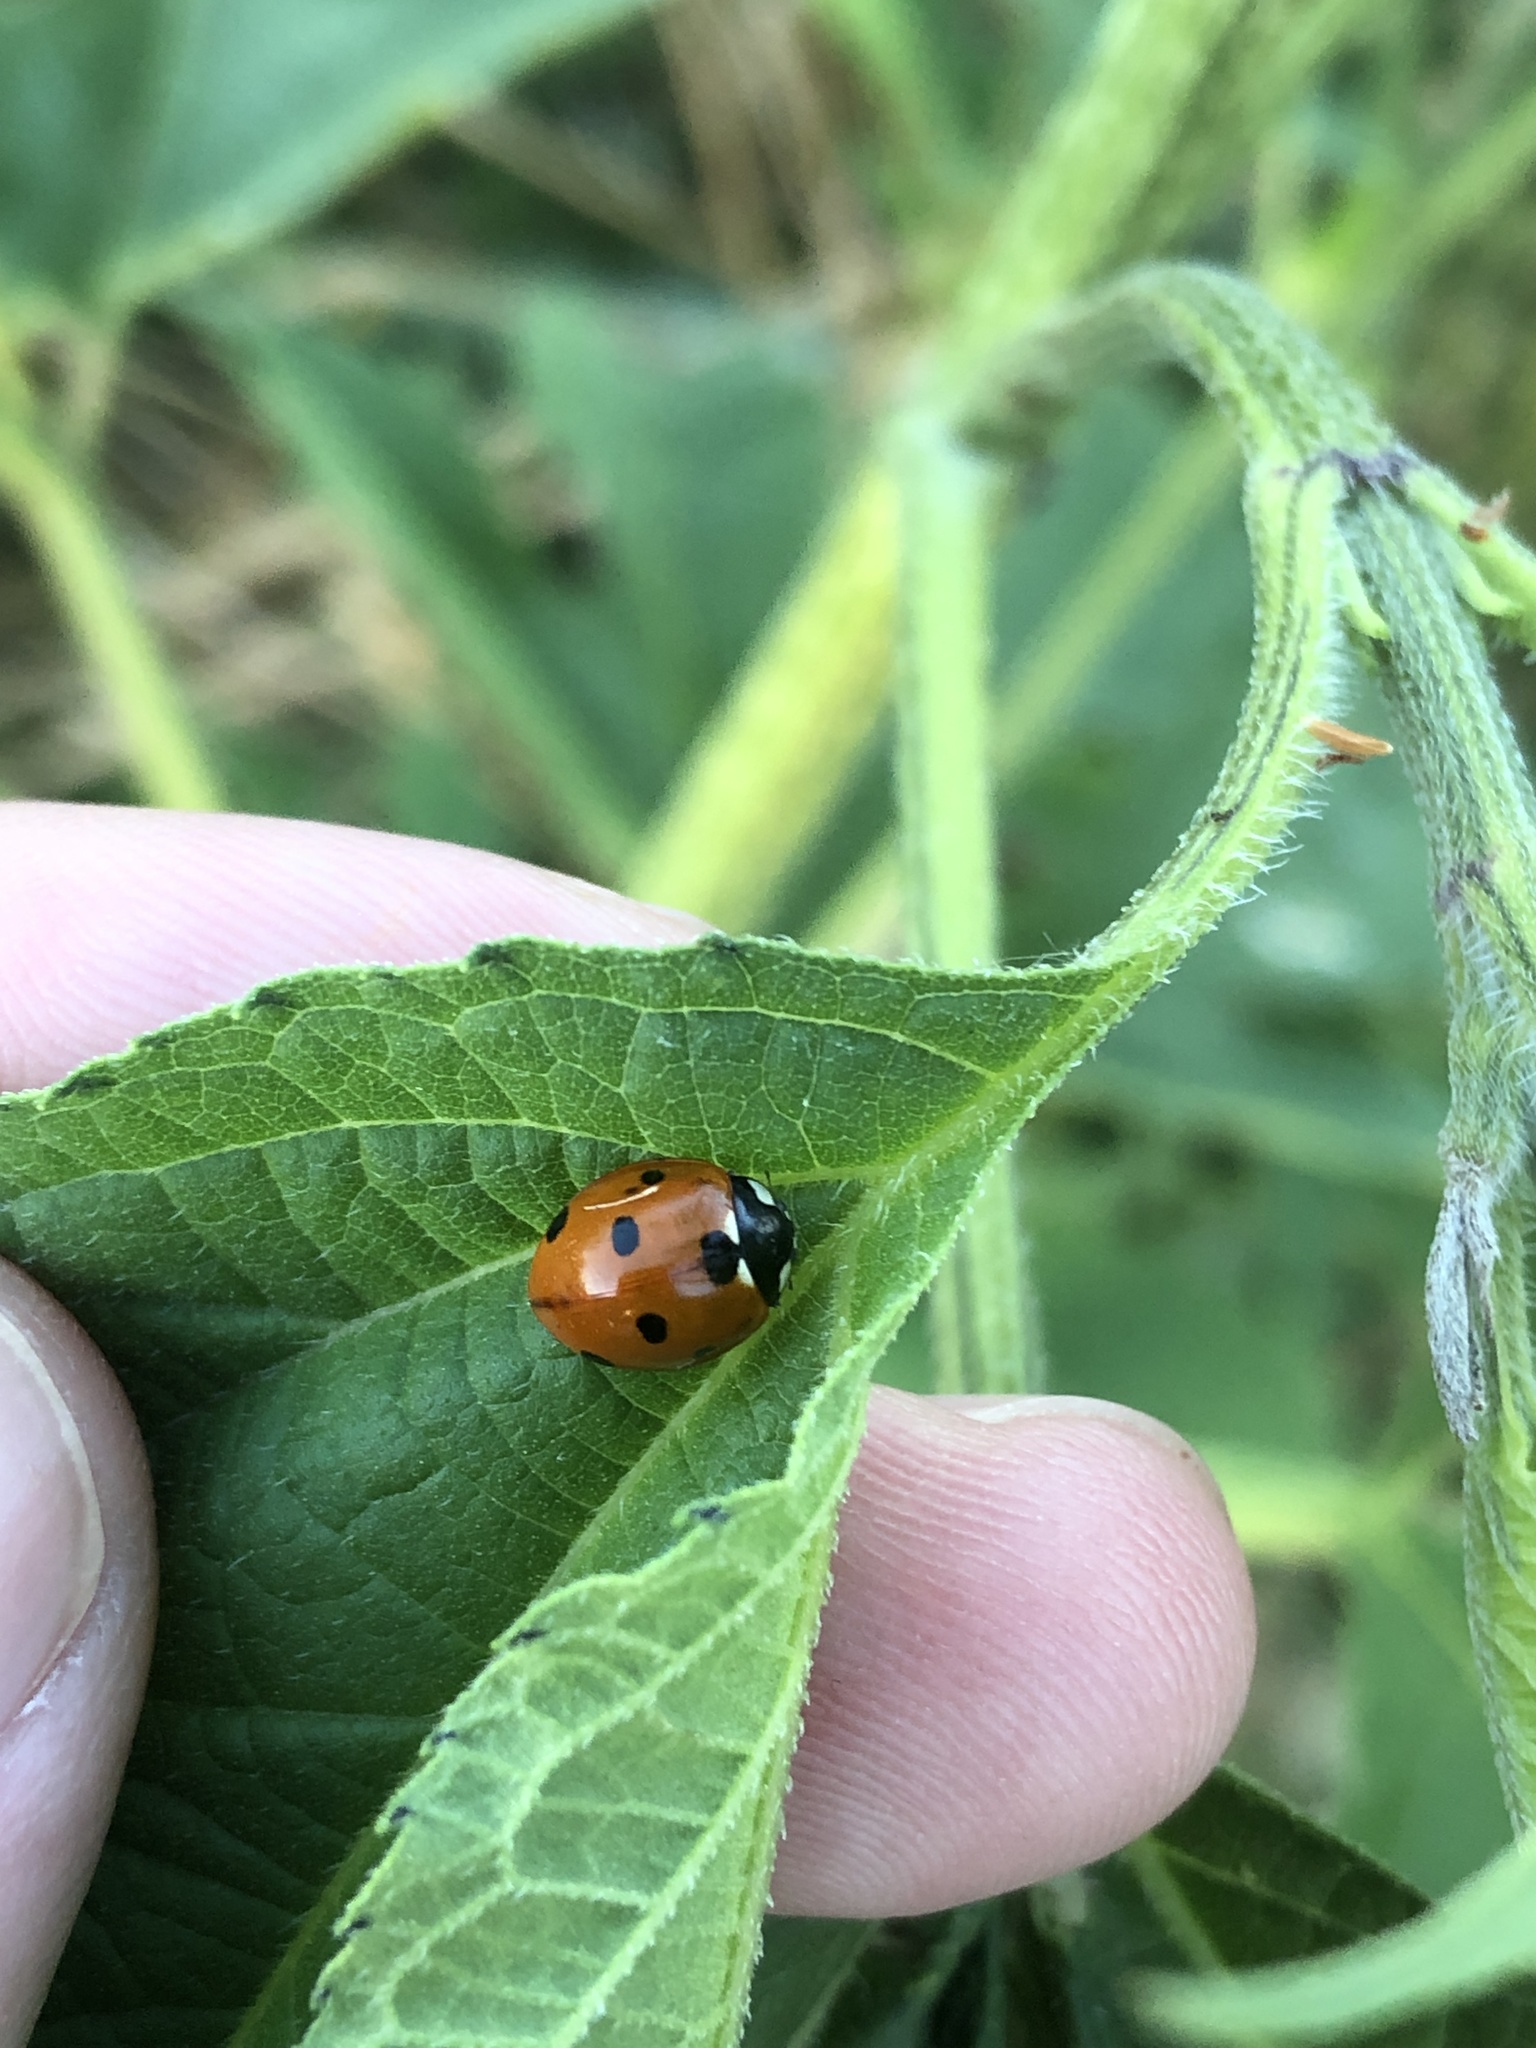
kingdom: Animalia
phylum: Arthropoda
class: Insecta
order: Coleoptera
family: Coccinellidae
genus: Coccinella
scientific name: Coccinella septempunctata
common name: Sevenspotted lady beetle
